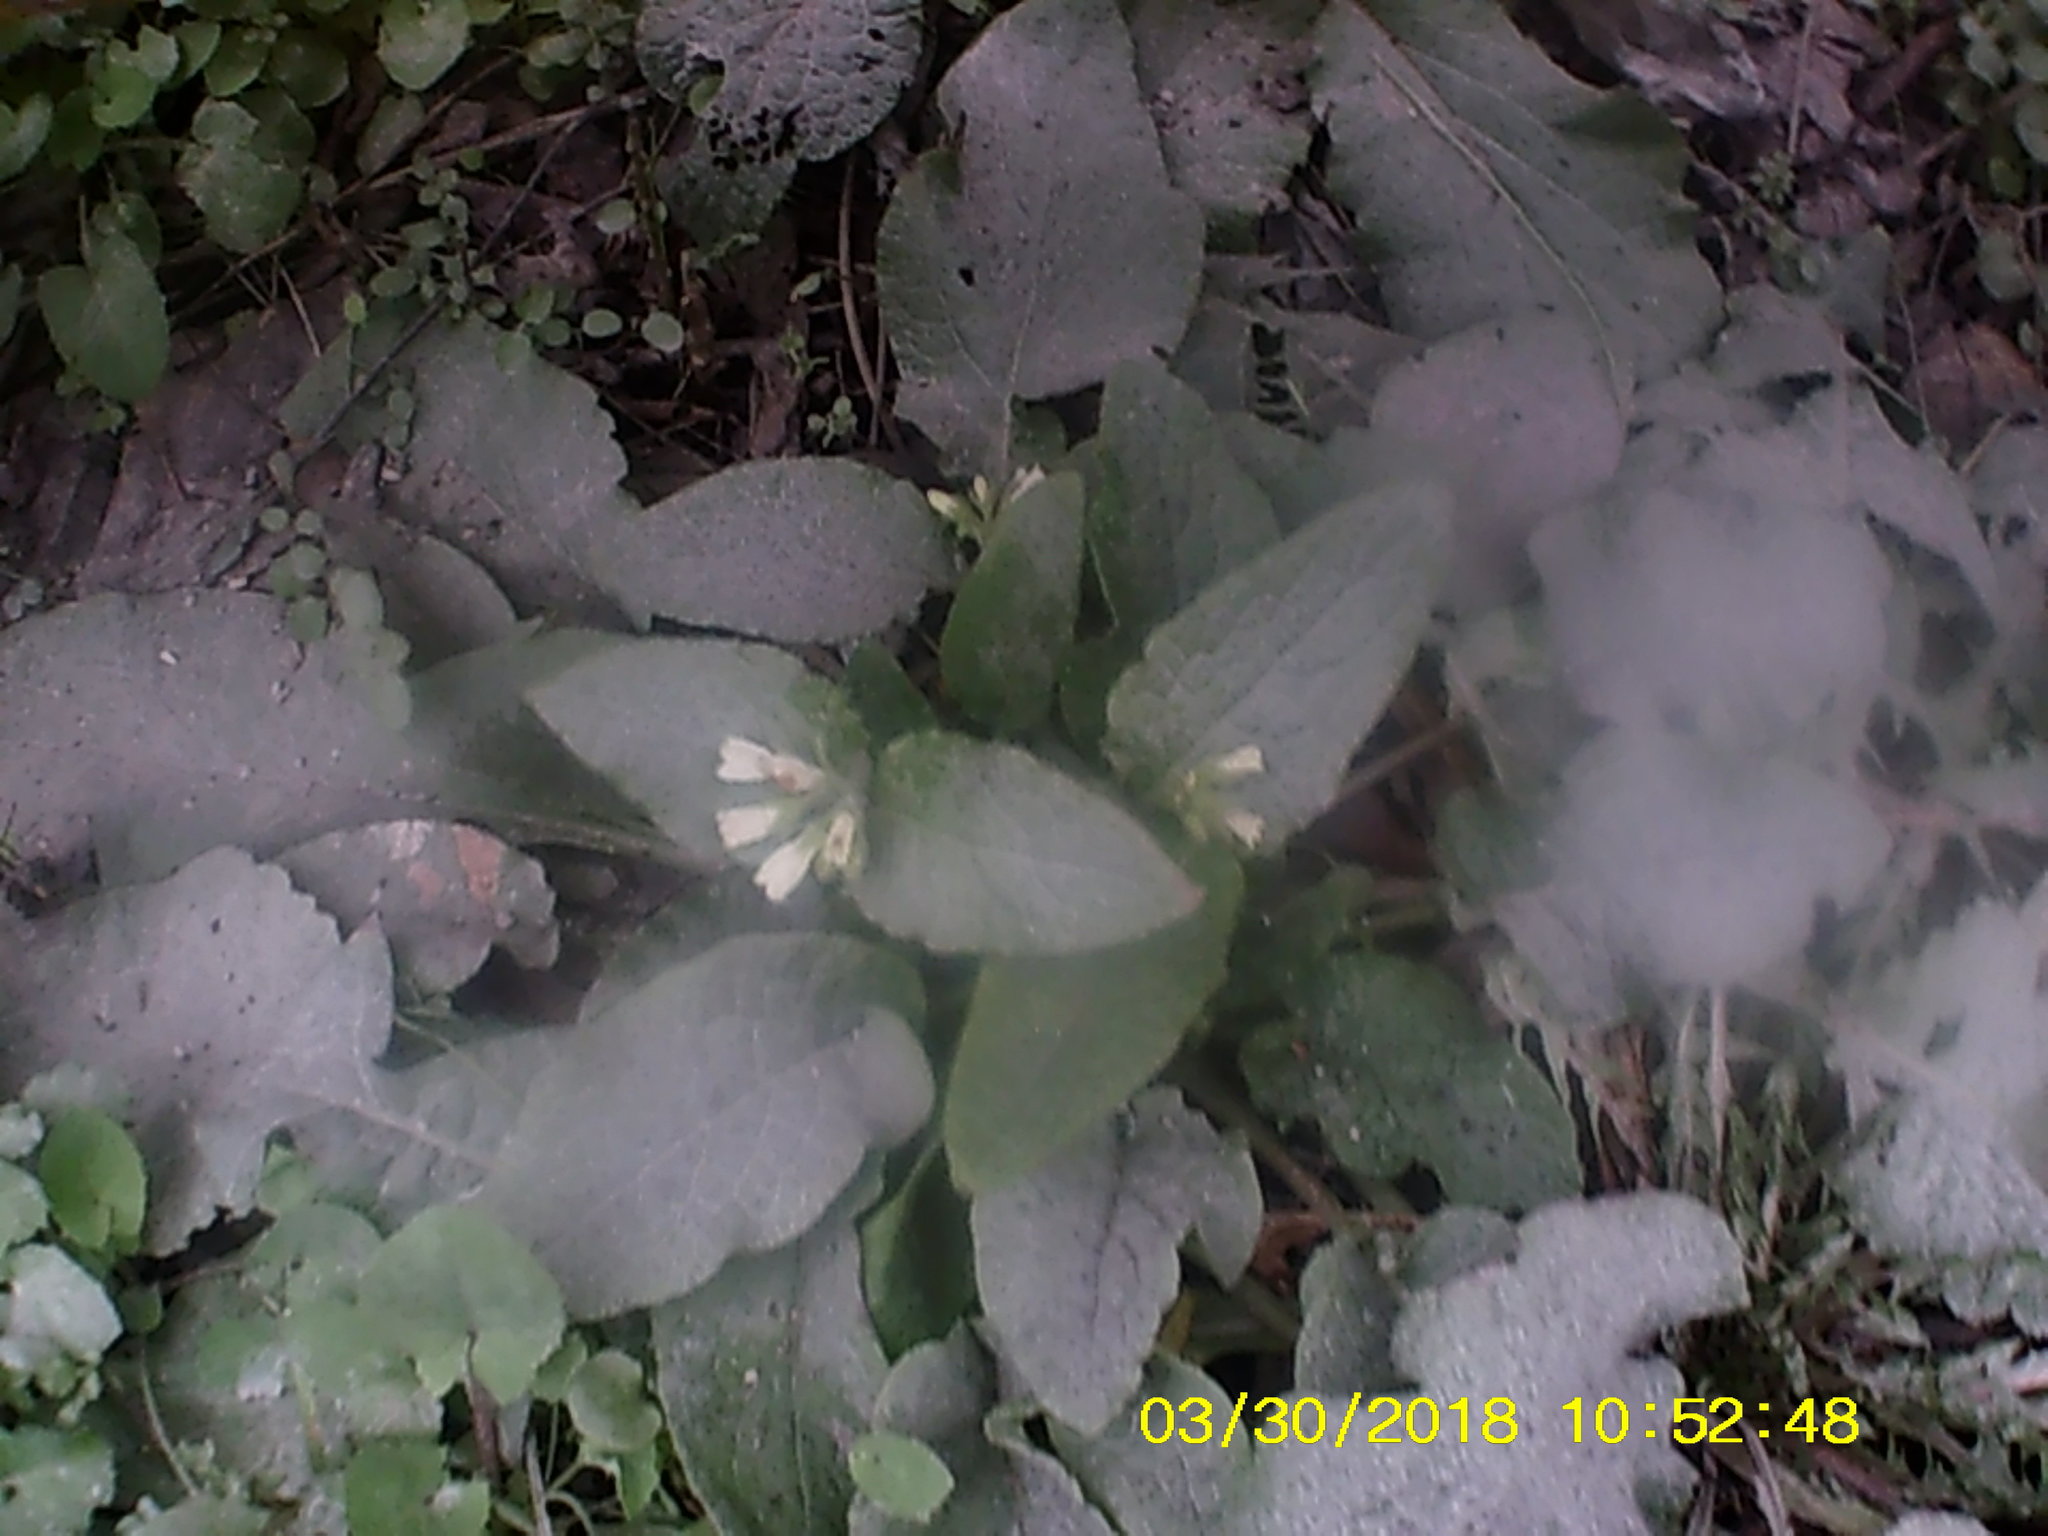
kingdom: Plantae
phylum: Tracheophyta
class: Magnoliopsida
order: Boraginales
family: Boraginaceae
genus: Symphytum
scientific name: Symphytum tauricum
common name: Crimean comfrey
